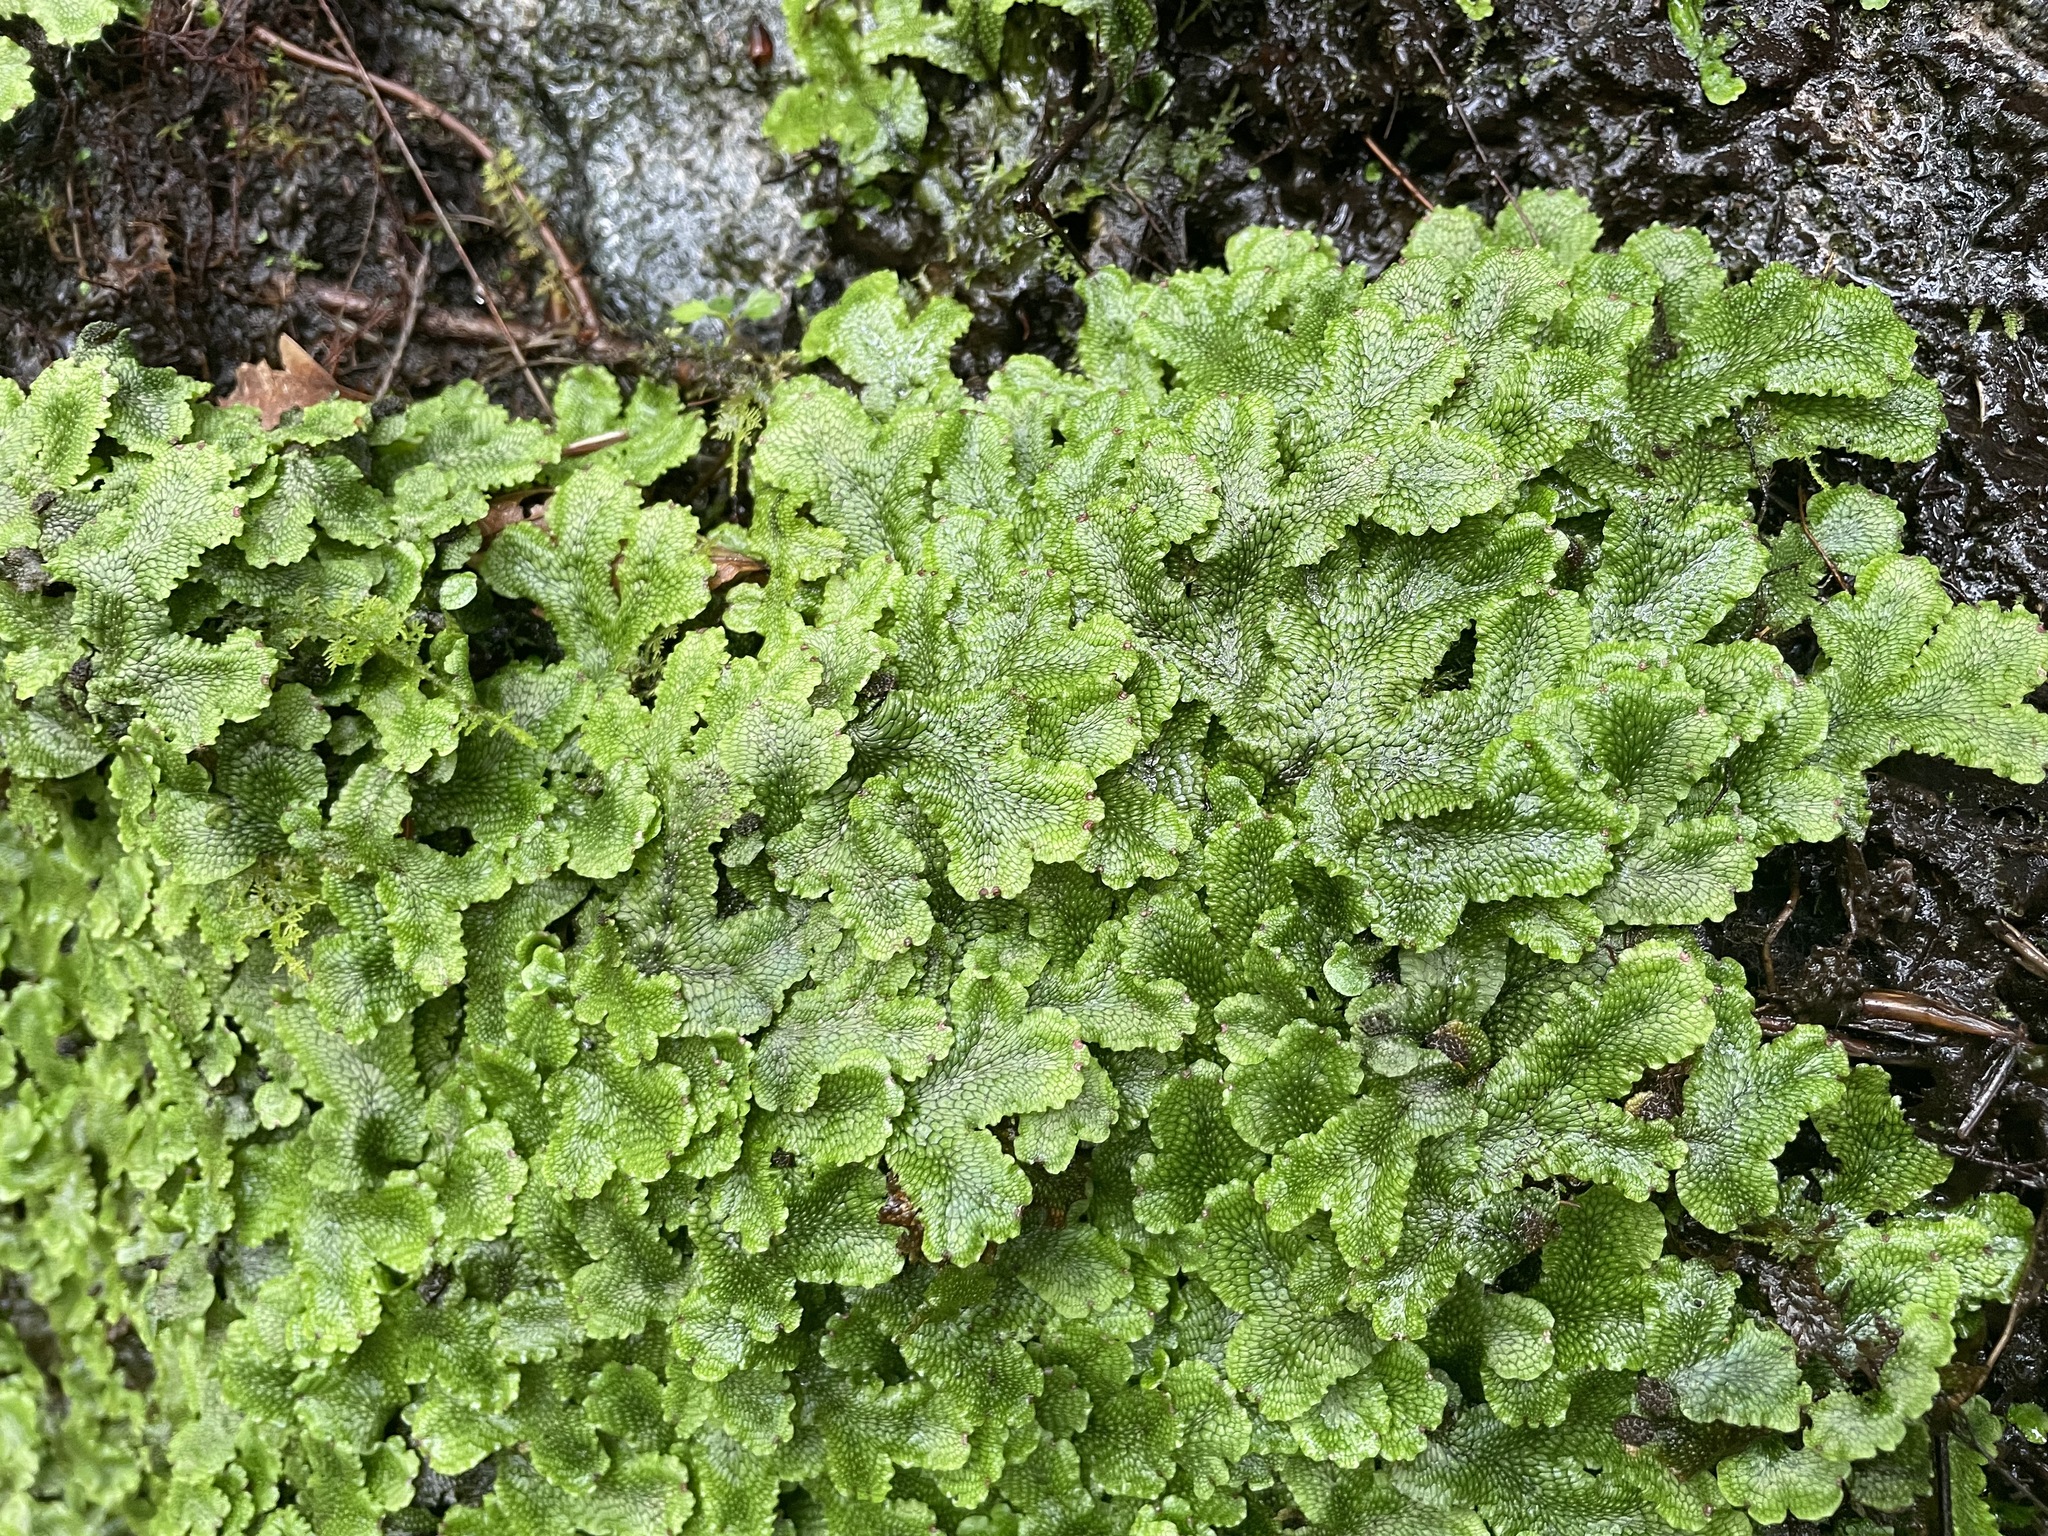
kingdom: Plantae
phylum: Marchantiophyta
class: Marchantiopsida
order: Marchantiales
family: Conocephalaceae
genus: Conocephalum
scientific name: Conocephalum salebrosum
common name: Cat-tongue liverwort
